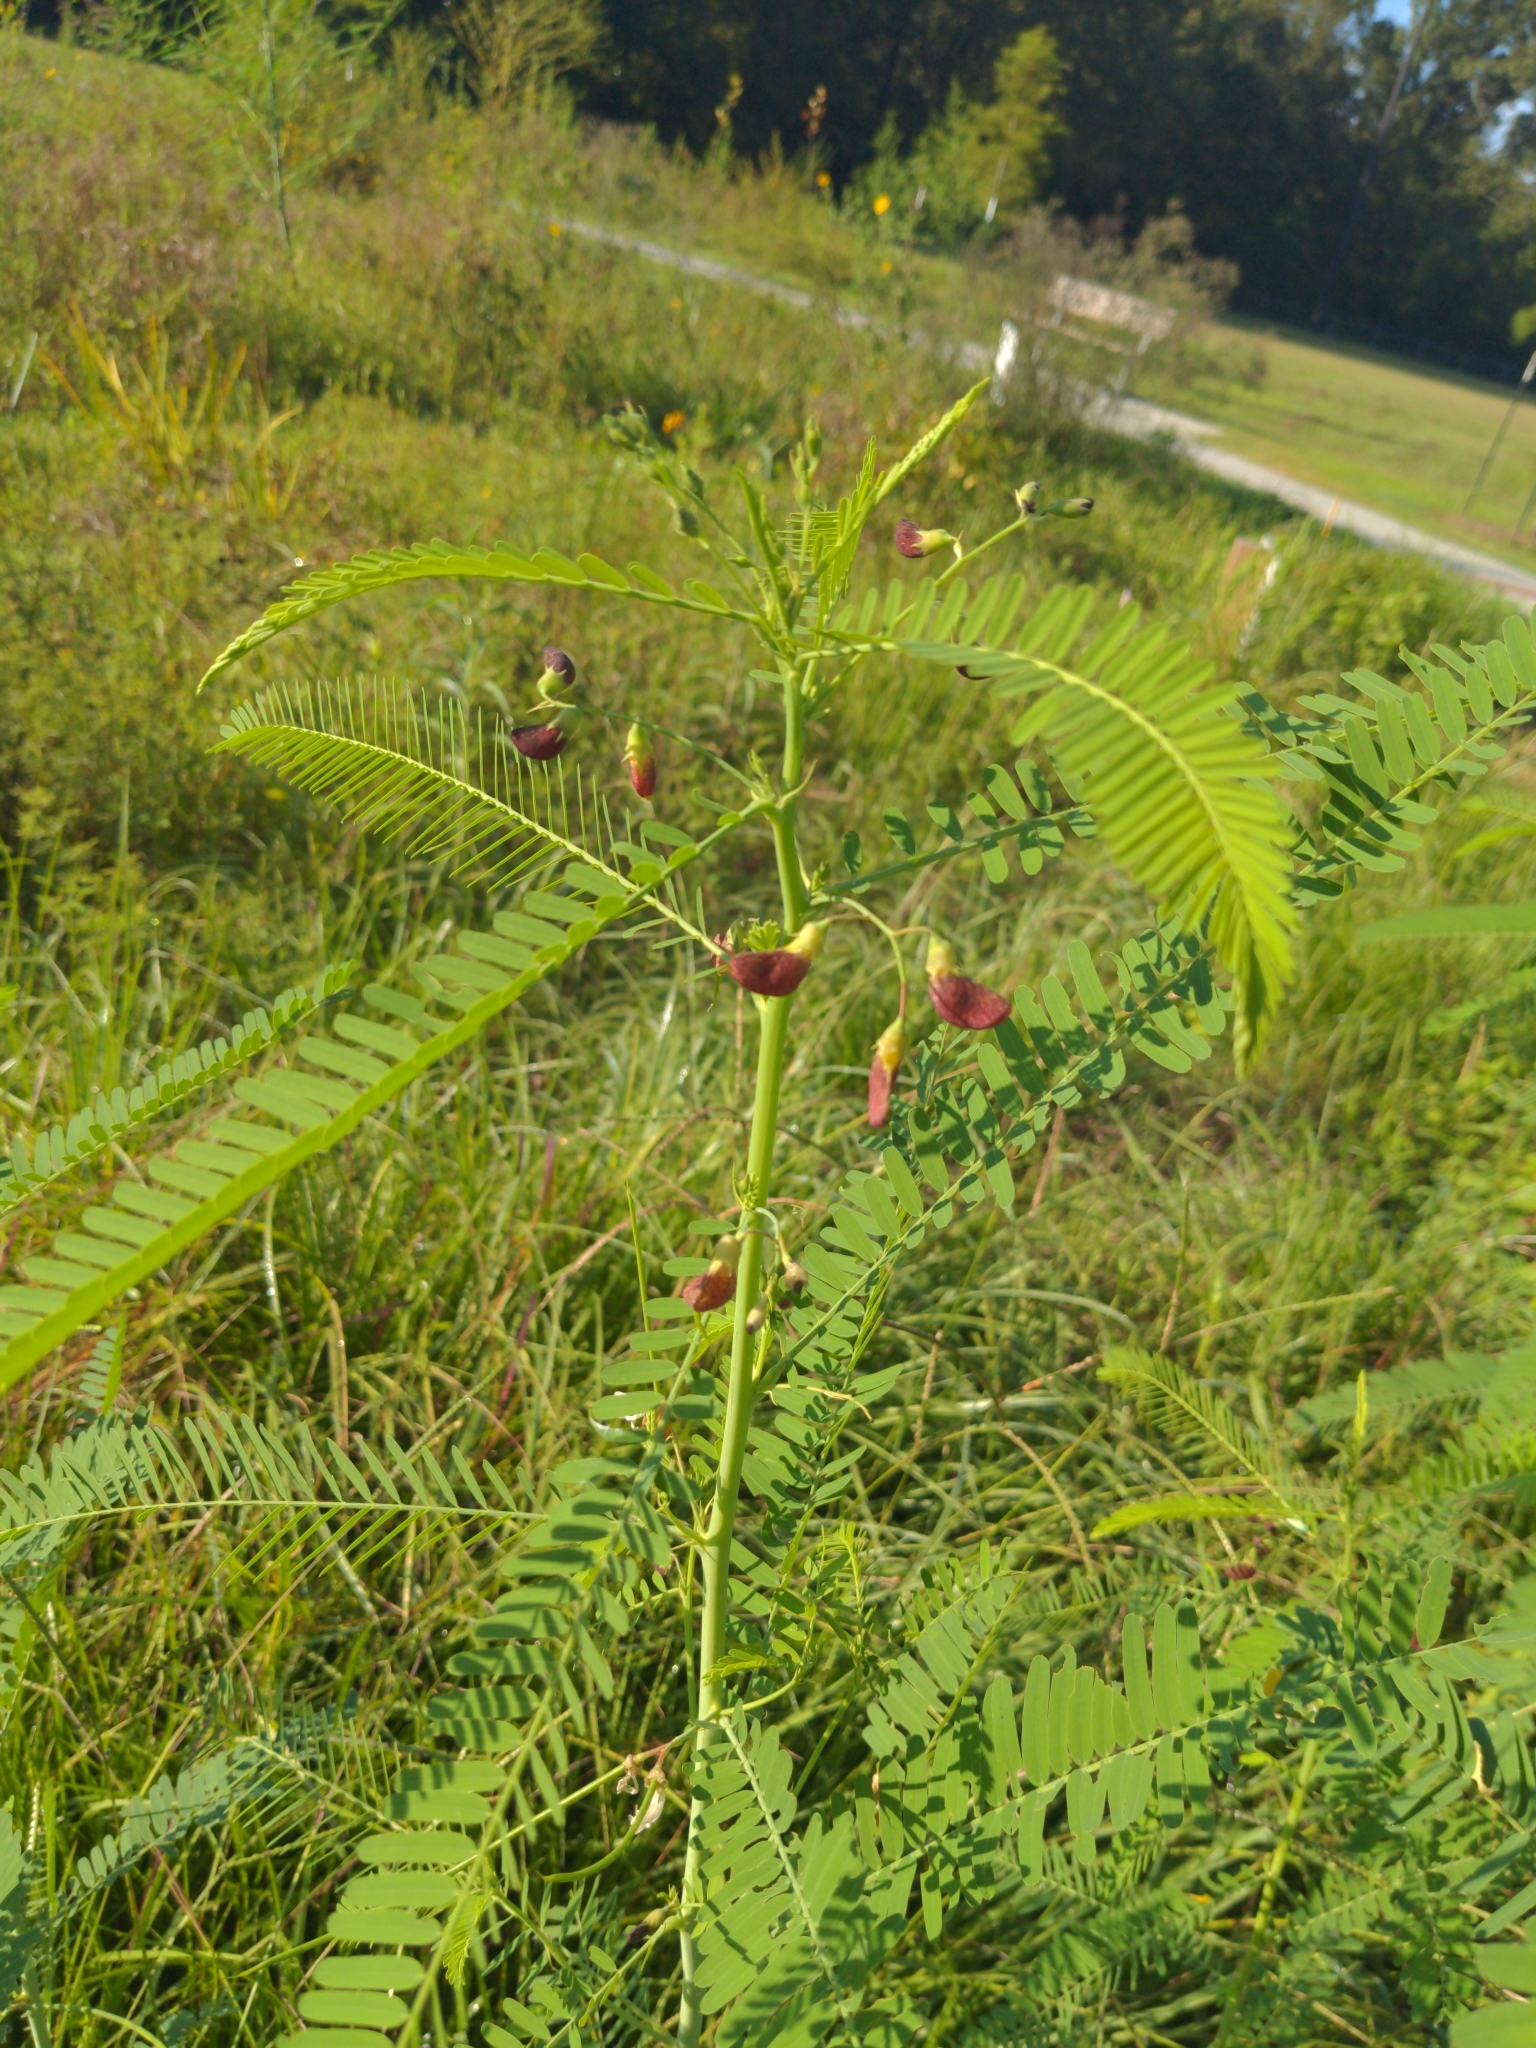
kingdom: Plantae
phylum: Tracheophyta
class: Magnoliopsida
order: Fabales
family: Fabaceae
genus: Sesbania
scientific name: Sesbania herbacea
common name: Bigpod sesbania
